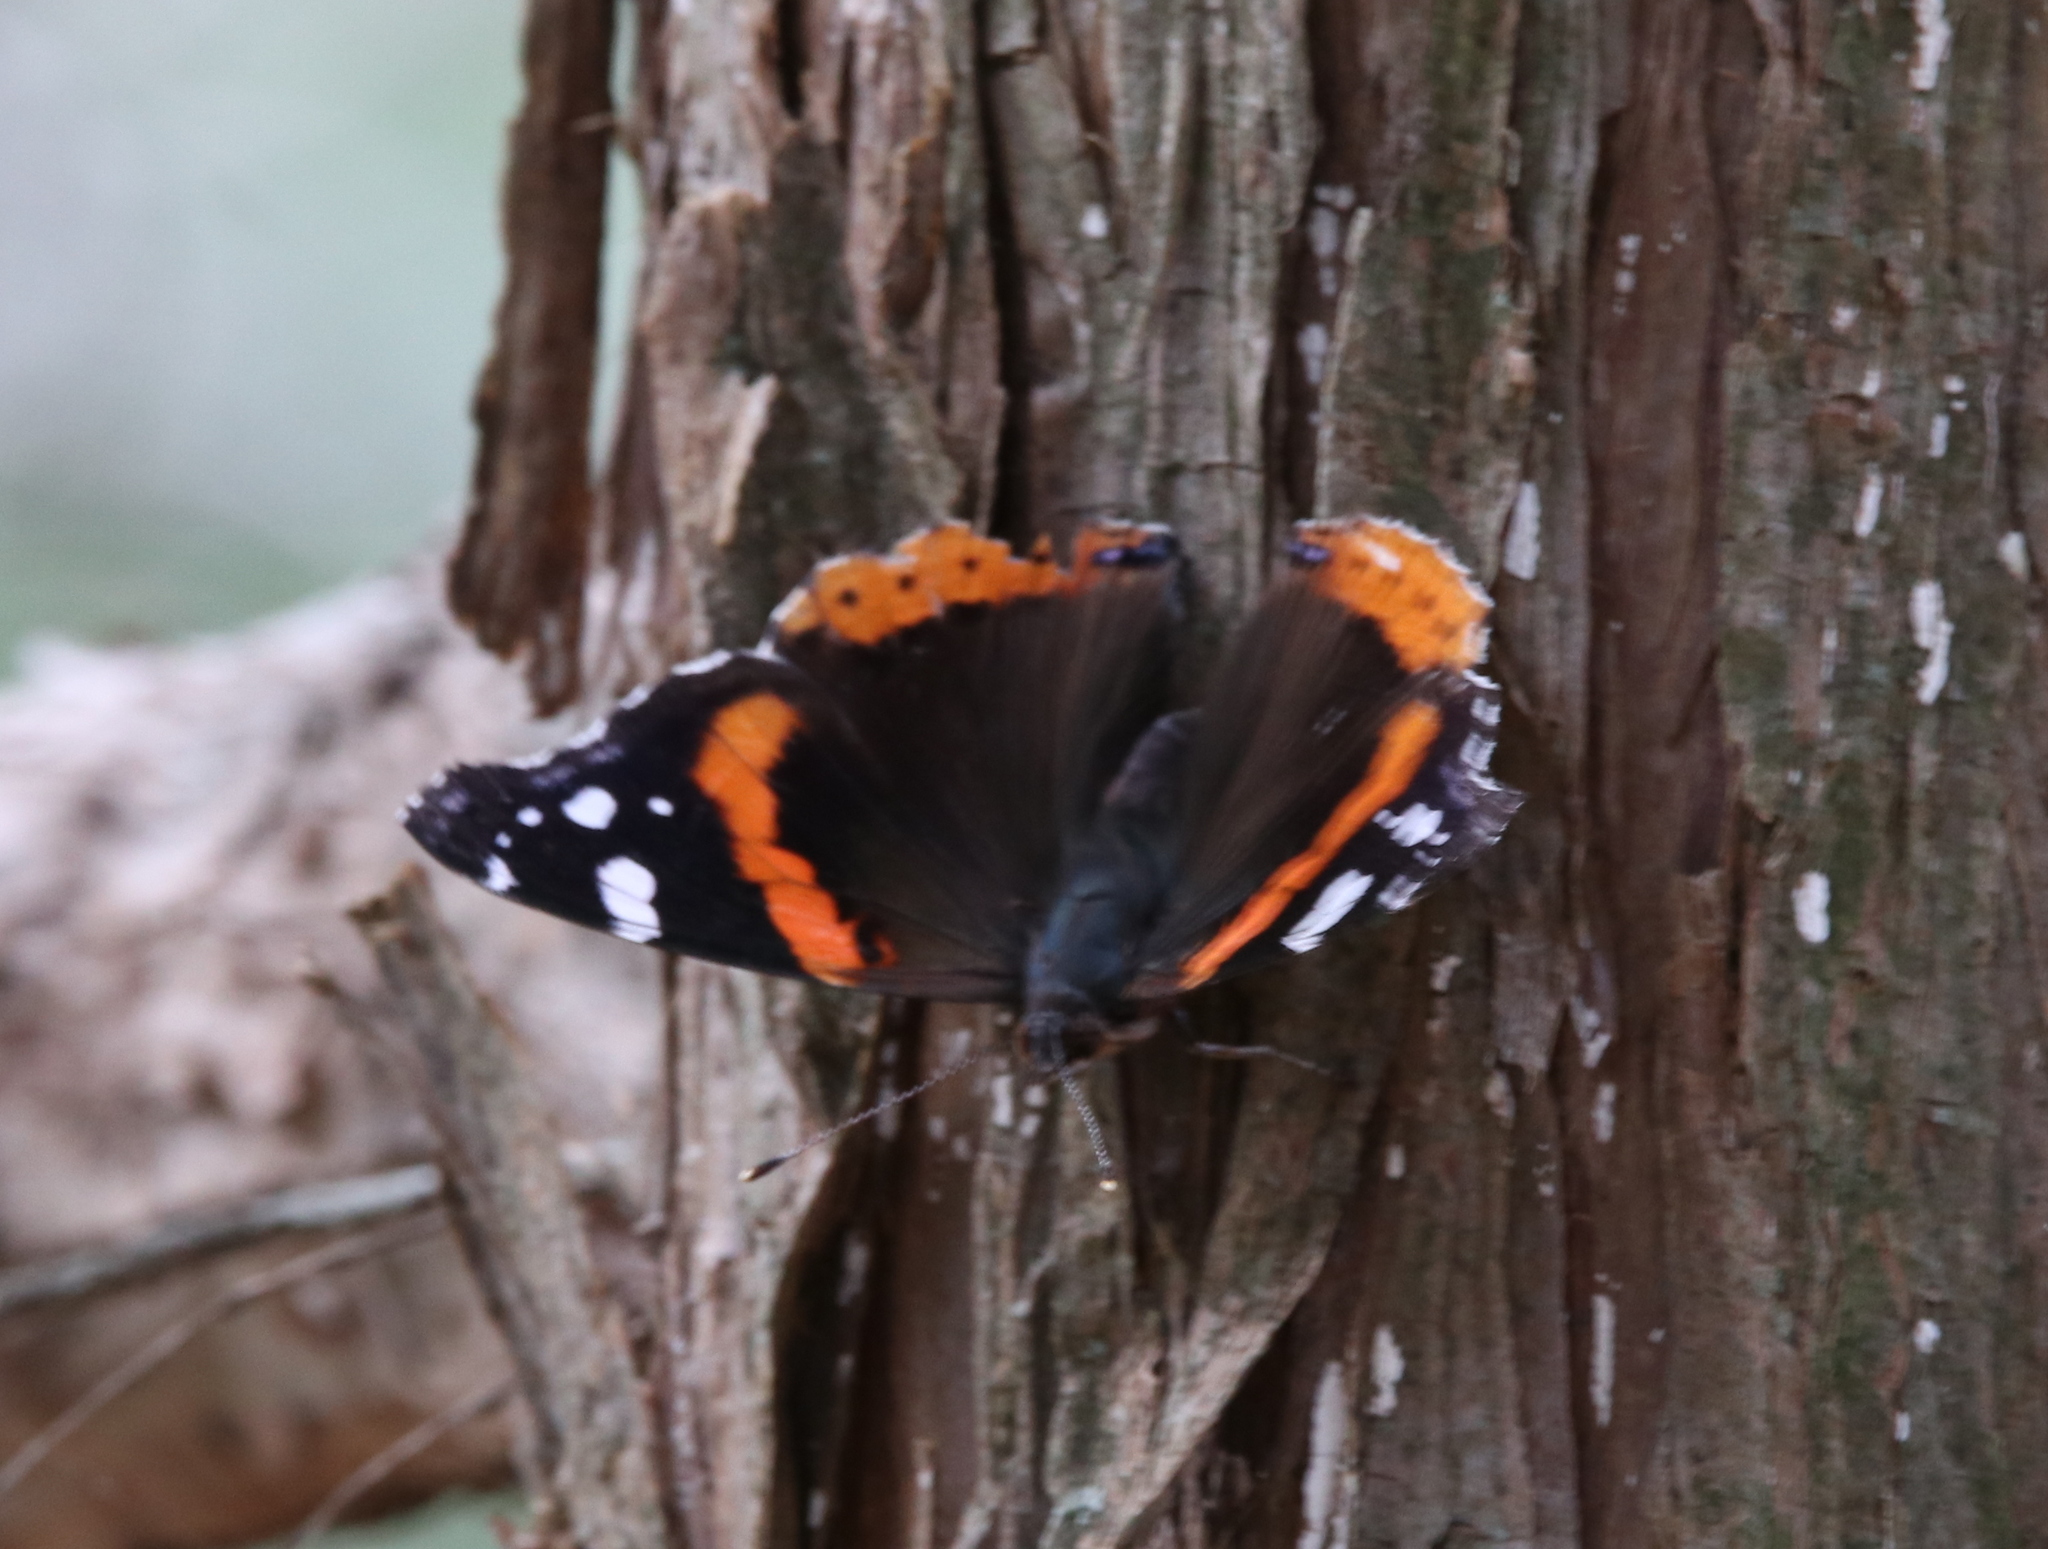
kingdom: Animalia
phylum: Arthropoda
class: Insecta
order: Lepidoptera
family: Nymphalidae
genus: Vanessa
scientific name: Vanessa atalanta
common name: Red admiral
